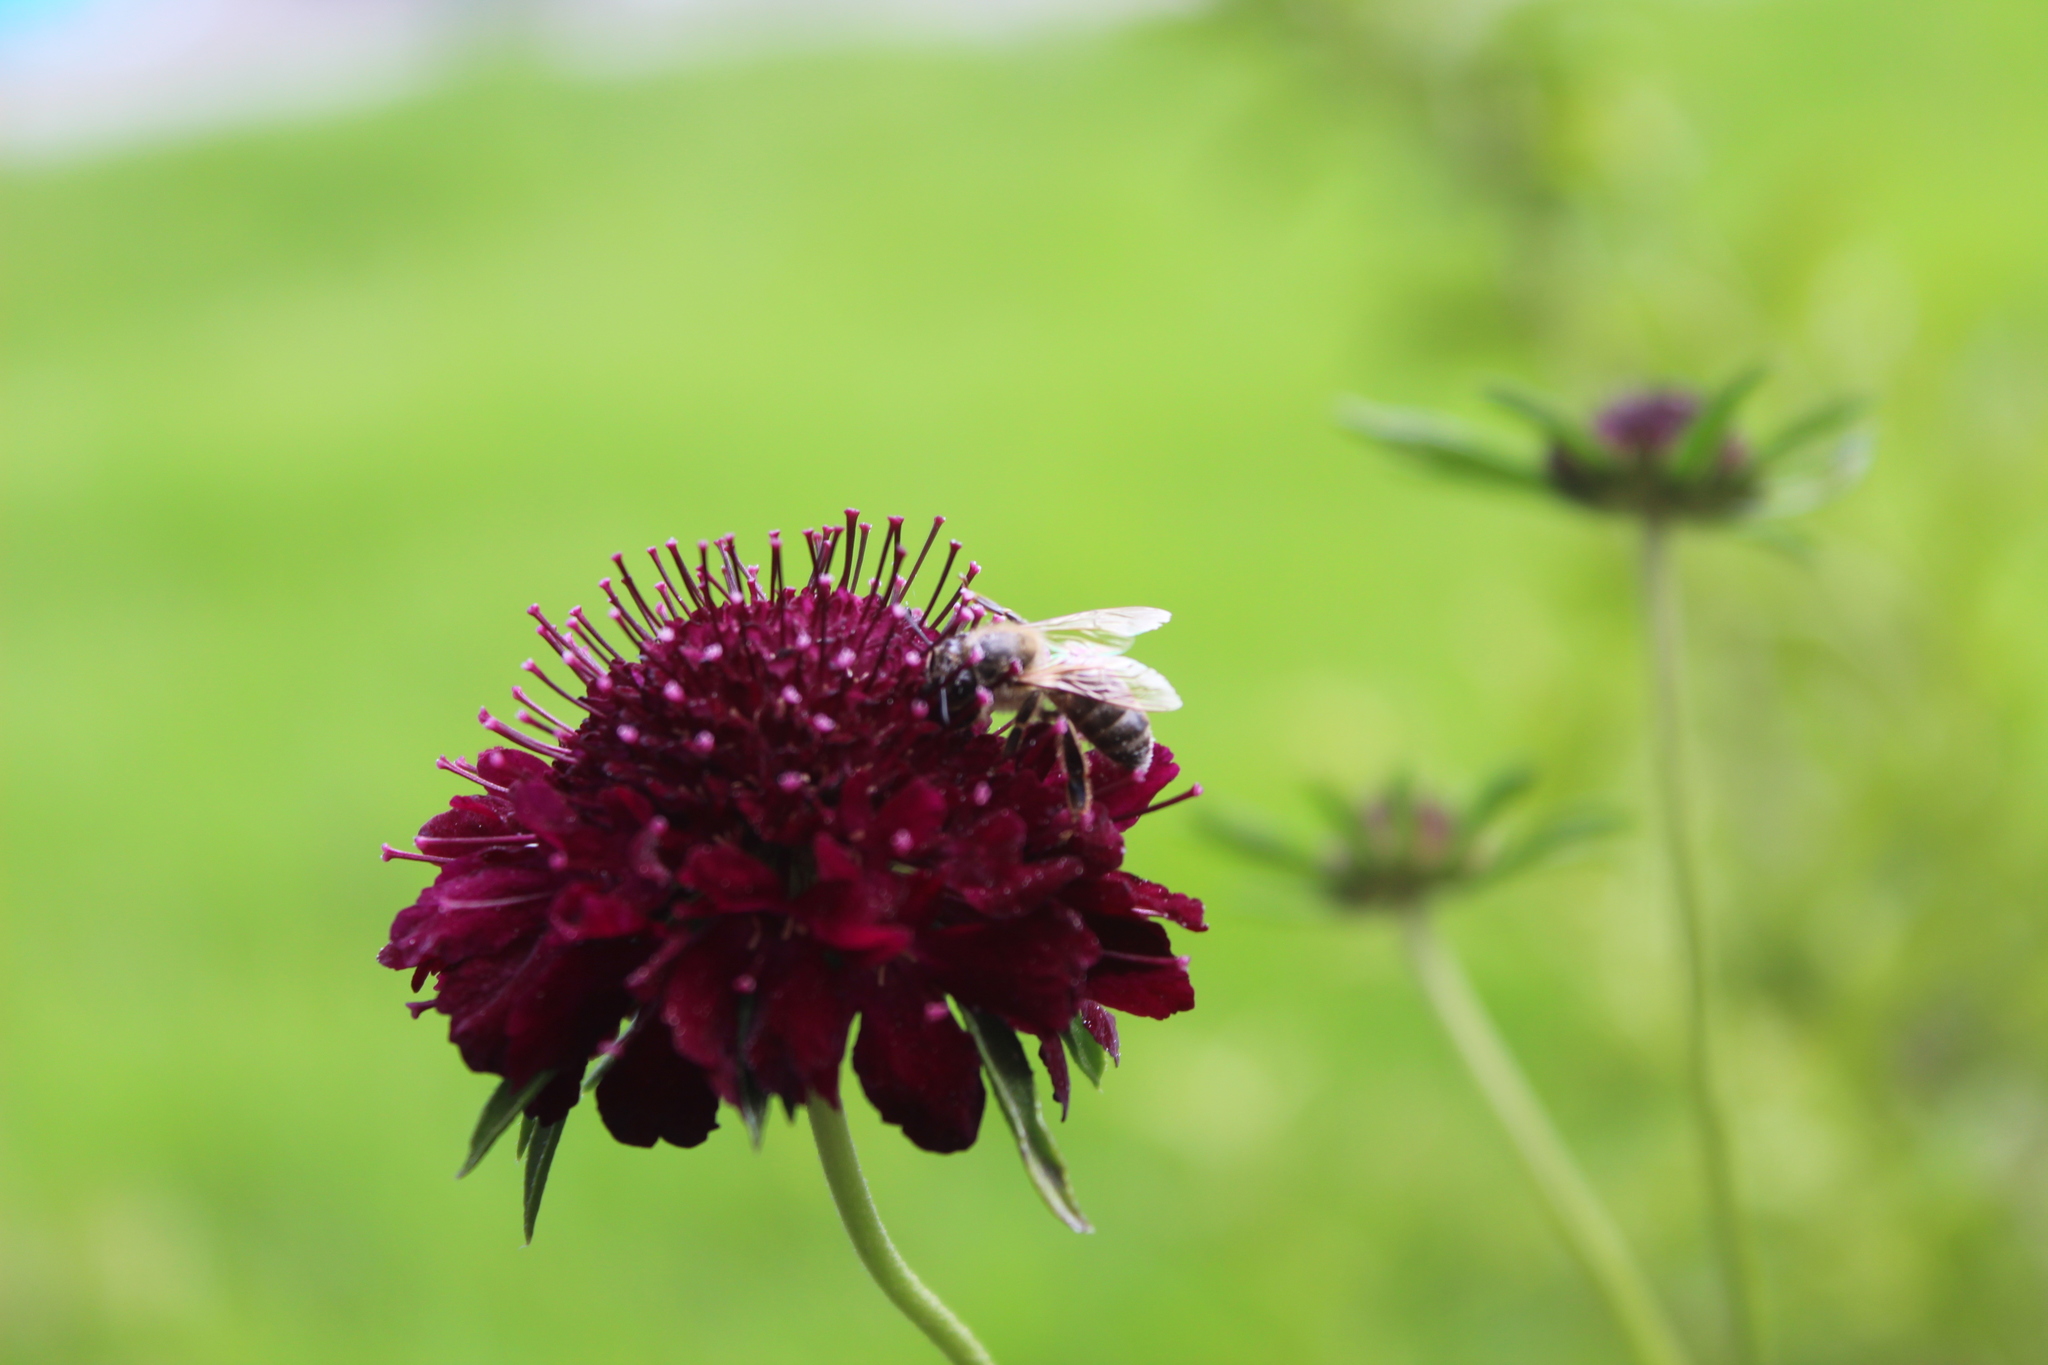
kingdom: Animalia
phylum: Arthropoda
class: Insecta
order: Hymenoptera
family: Apidae
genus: Apis
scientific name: Apis mellifera
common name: Honey bee
